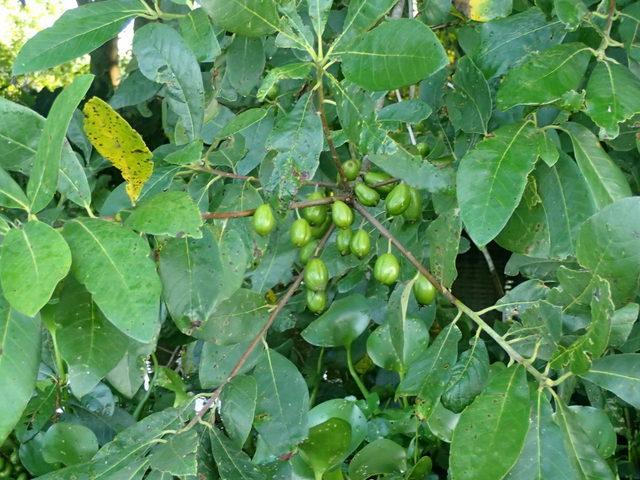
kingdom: Plantae
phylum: Tracheophyta
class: Magnoliopsida
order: Cornales
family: Nyssaceae
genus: Nyssa
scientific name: Nyssa ogeche
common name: Ogeechee tupelo
